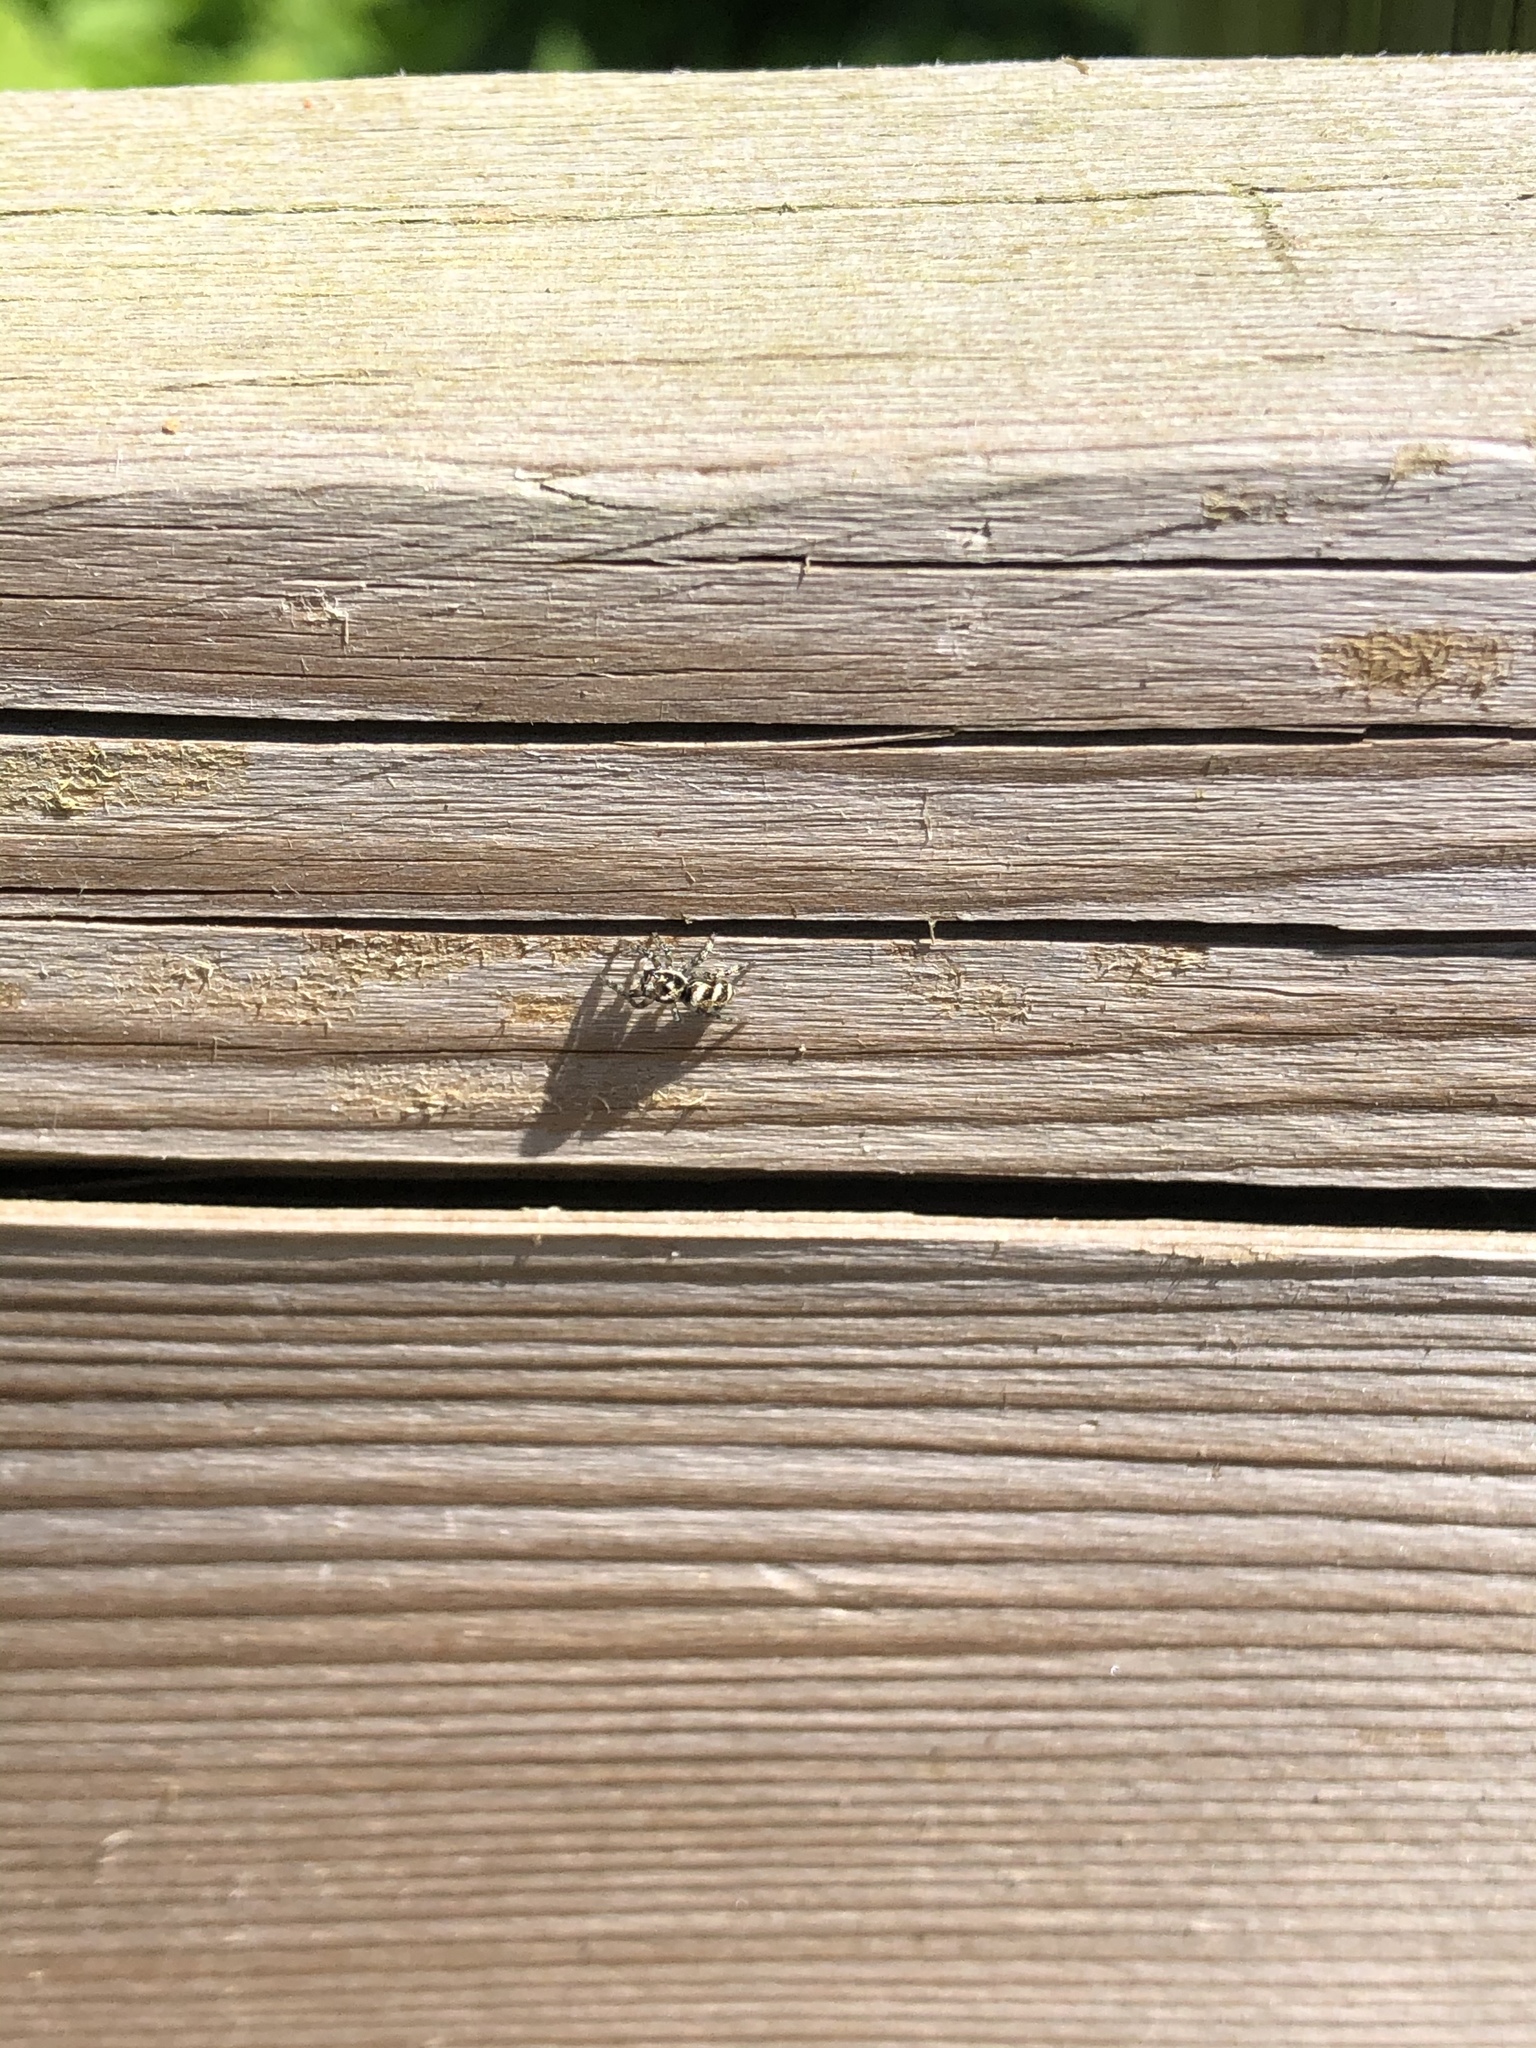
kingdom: Animalia
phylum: Arthropoda
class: Arachnida
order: Araneae
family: Salticidae
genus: Salticus
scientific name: Salticus scenicus
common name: Zebra jumper
